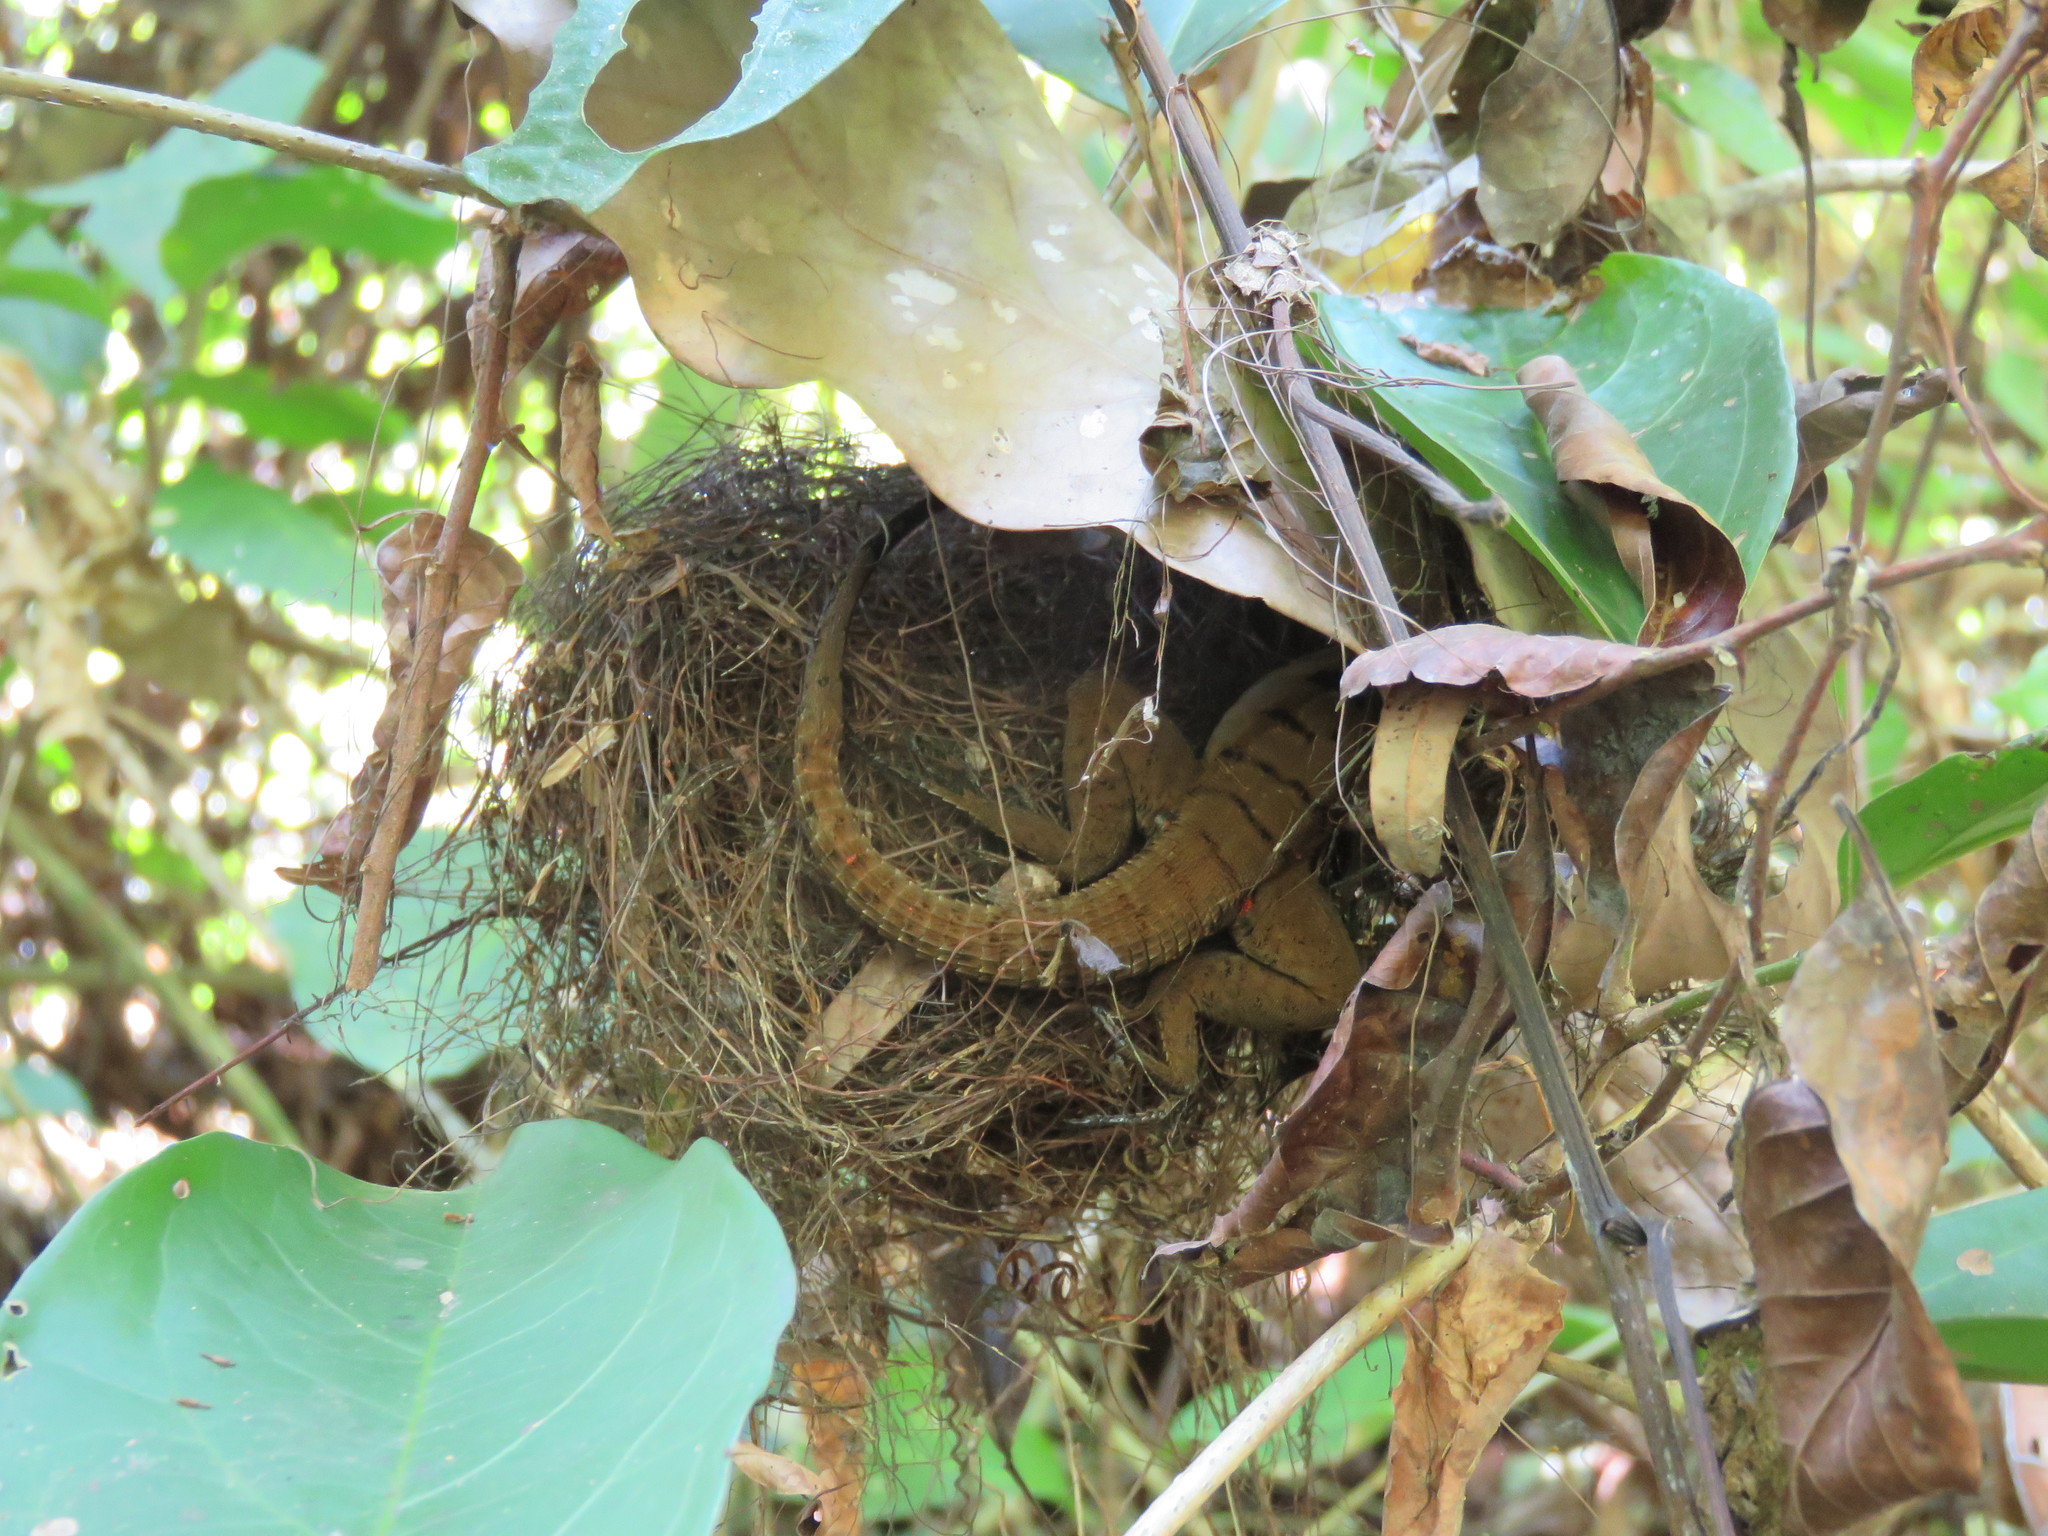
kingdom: Animalia
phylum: Chordata
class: Squamata
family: Teiidae
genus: Kentropyx
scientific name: Kentropyx pelviceps
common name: Forest whiptail
